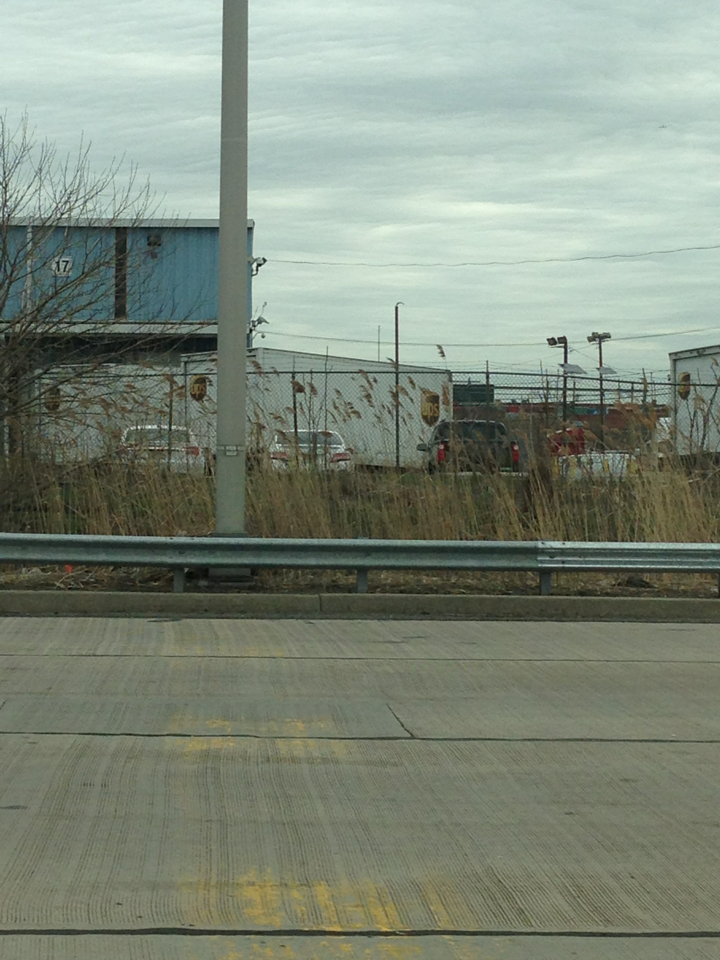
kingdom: Plantae
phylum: Tracheophyta
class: Liliopsida
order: Poales
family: Poaceae
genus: Phragmites
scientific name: Phragmites australis
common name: Common reed
